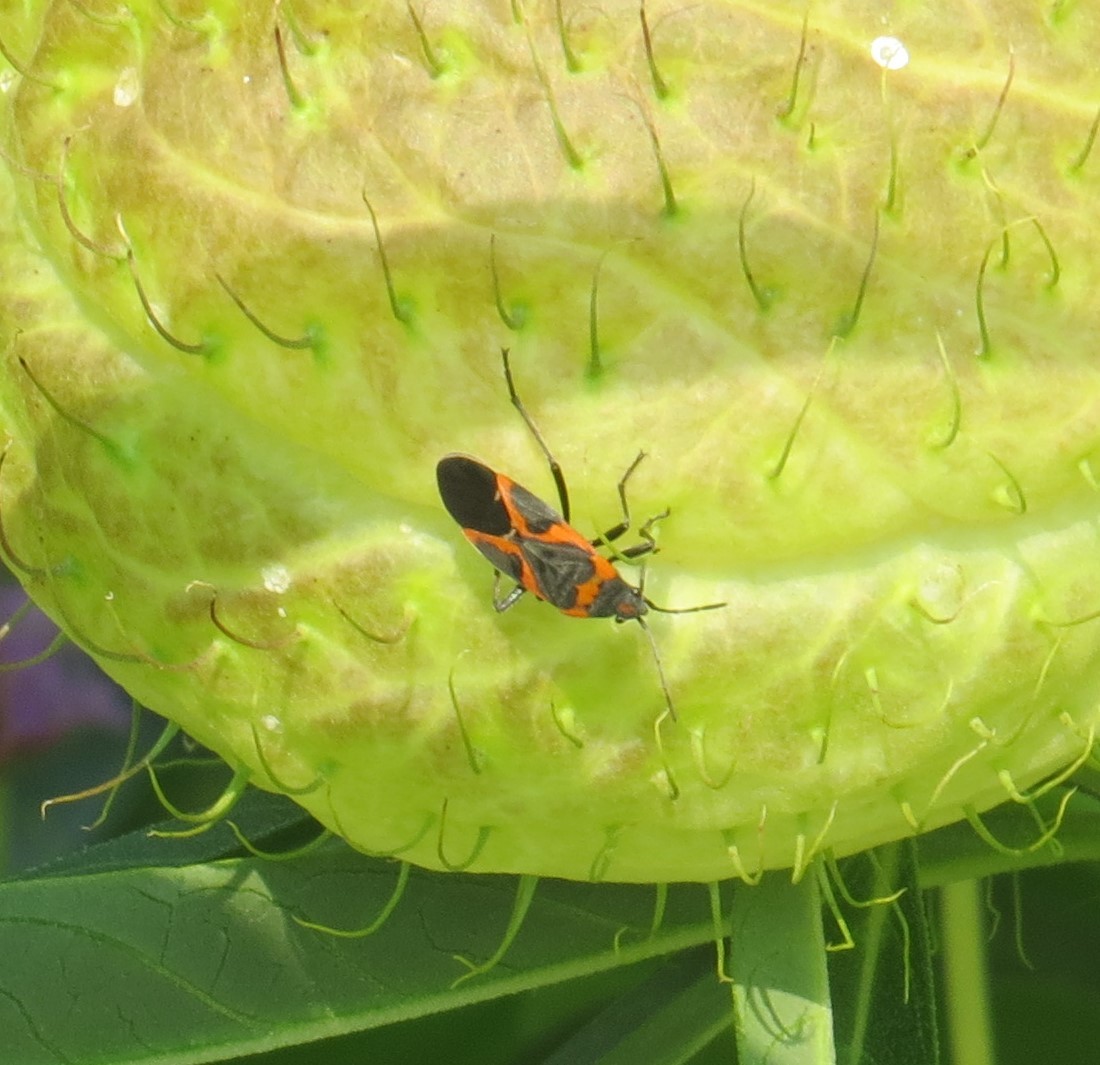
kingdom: Animalia
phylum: Arthropoda
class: Insecta
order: Hemiptera
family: Lygaeidae
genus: Lygaeus
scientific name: Lygaeus kalmii
